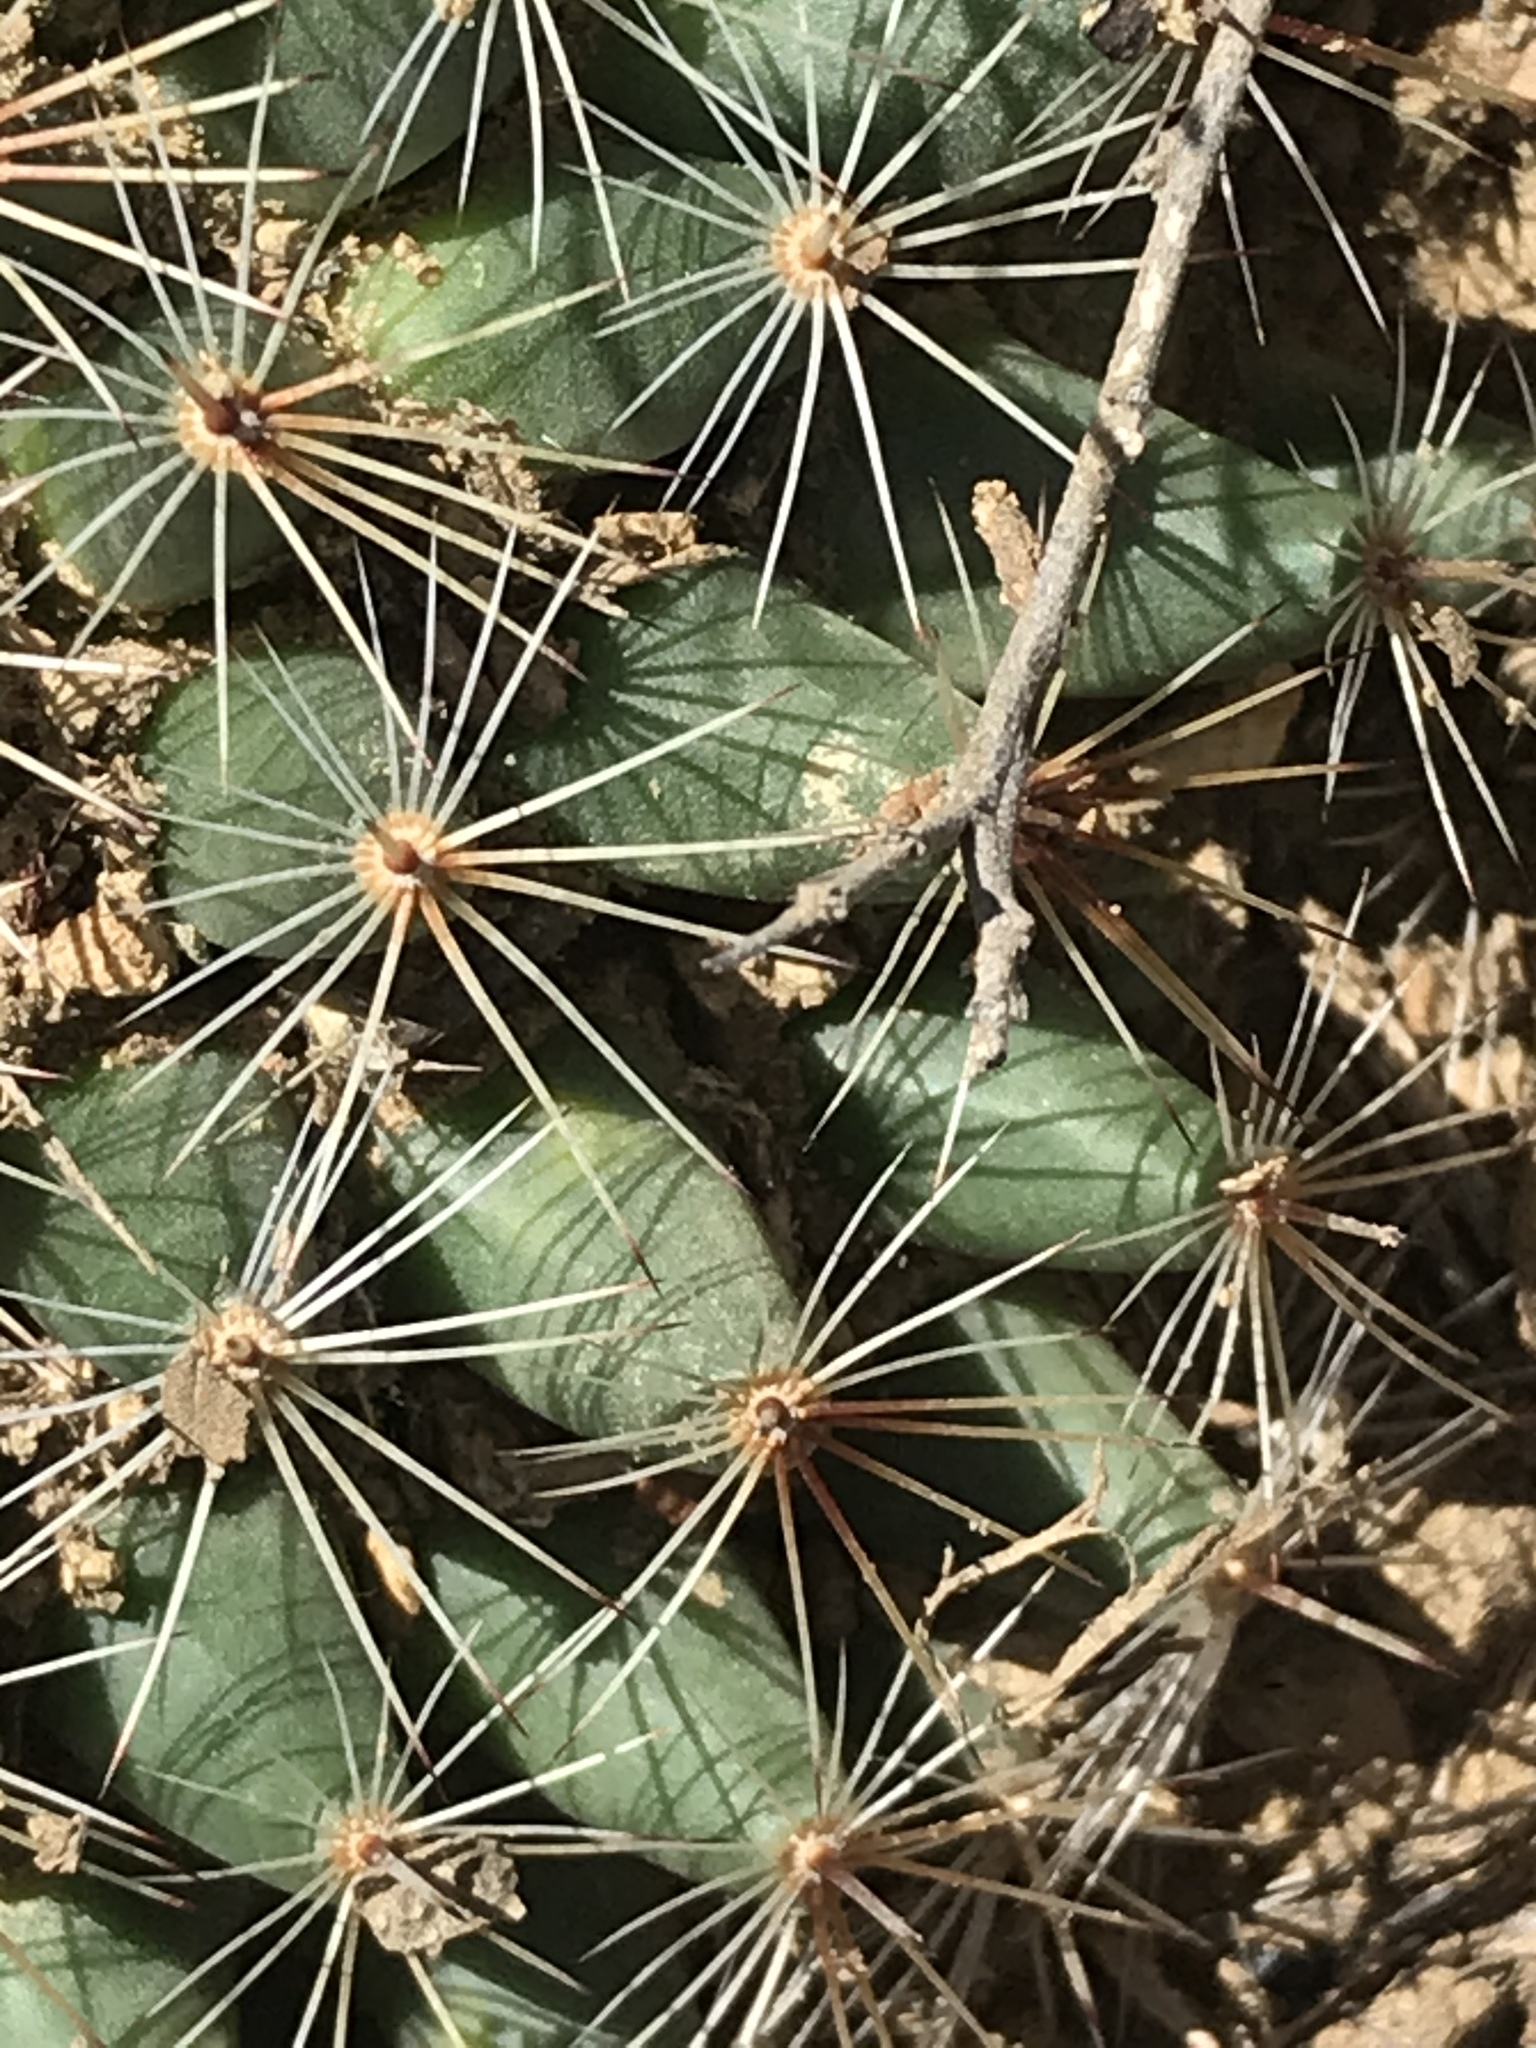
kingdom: Plantae
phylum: Tracheophyta
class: Magnoliopsida
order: Caryophyllales
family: Cactaceae
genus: Mammillaria
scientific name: Mammillaria heyderi
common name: Little nipple cactus
